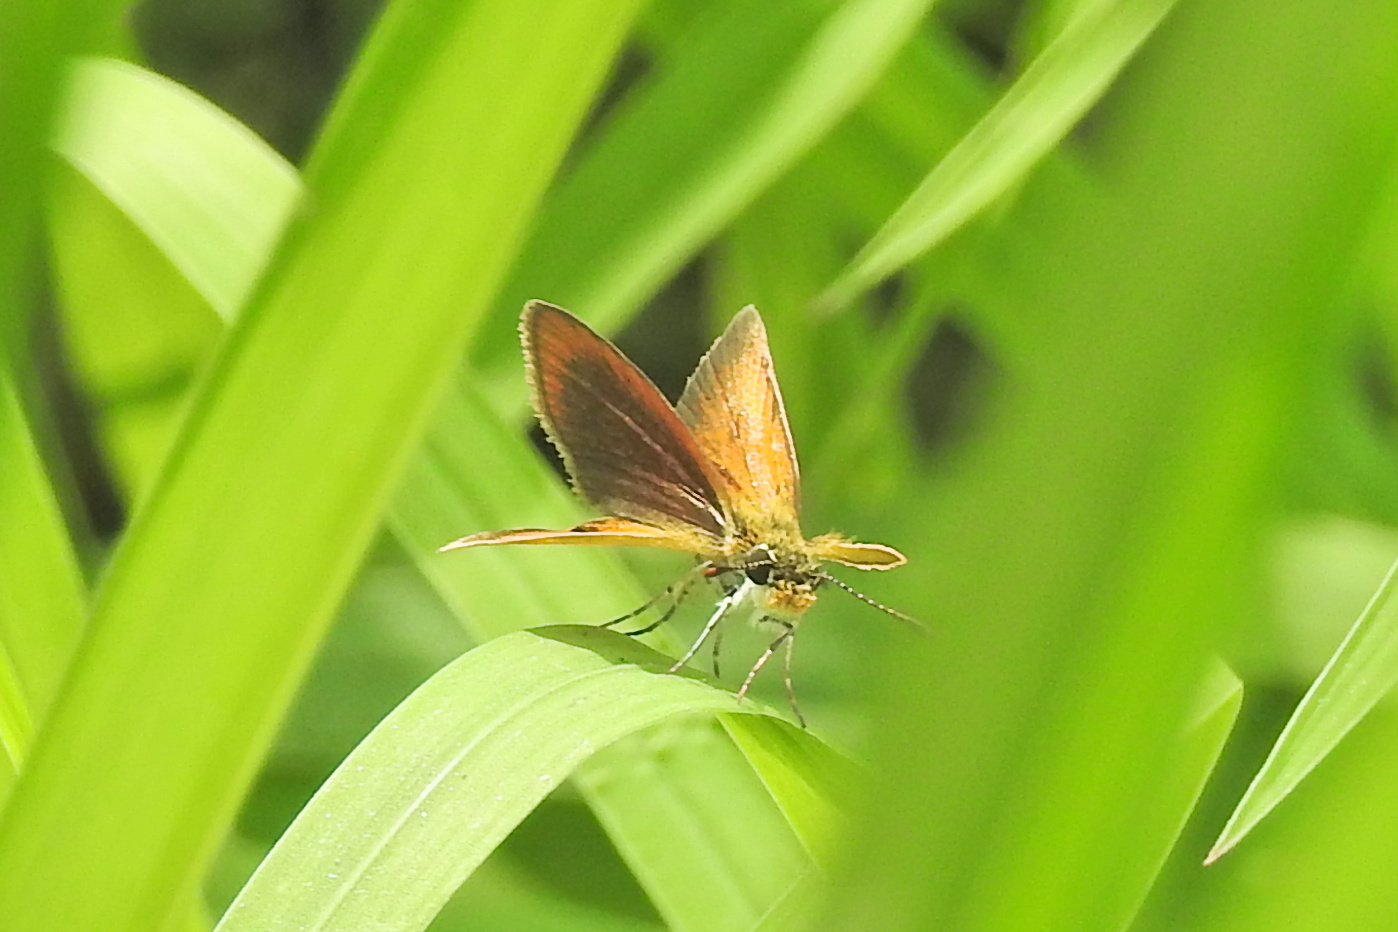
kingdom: Animalia
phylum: Arthropoda
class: Insecta
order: Lepidoptera
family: Hesperiidae
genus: Ancyloxypha
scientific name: Ancyloxypha numitor
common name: Least skipper
